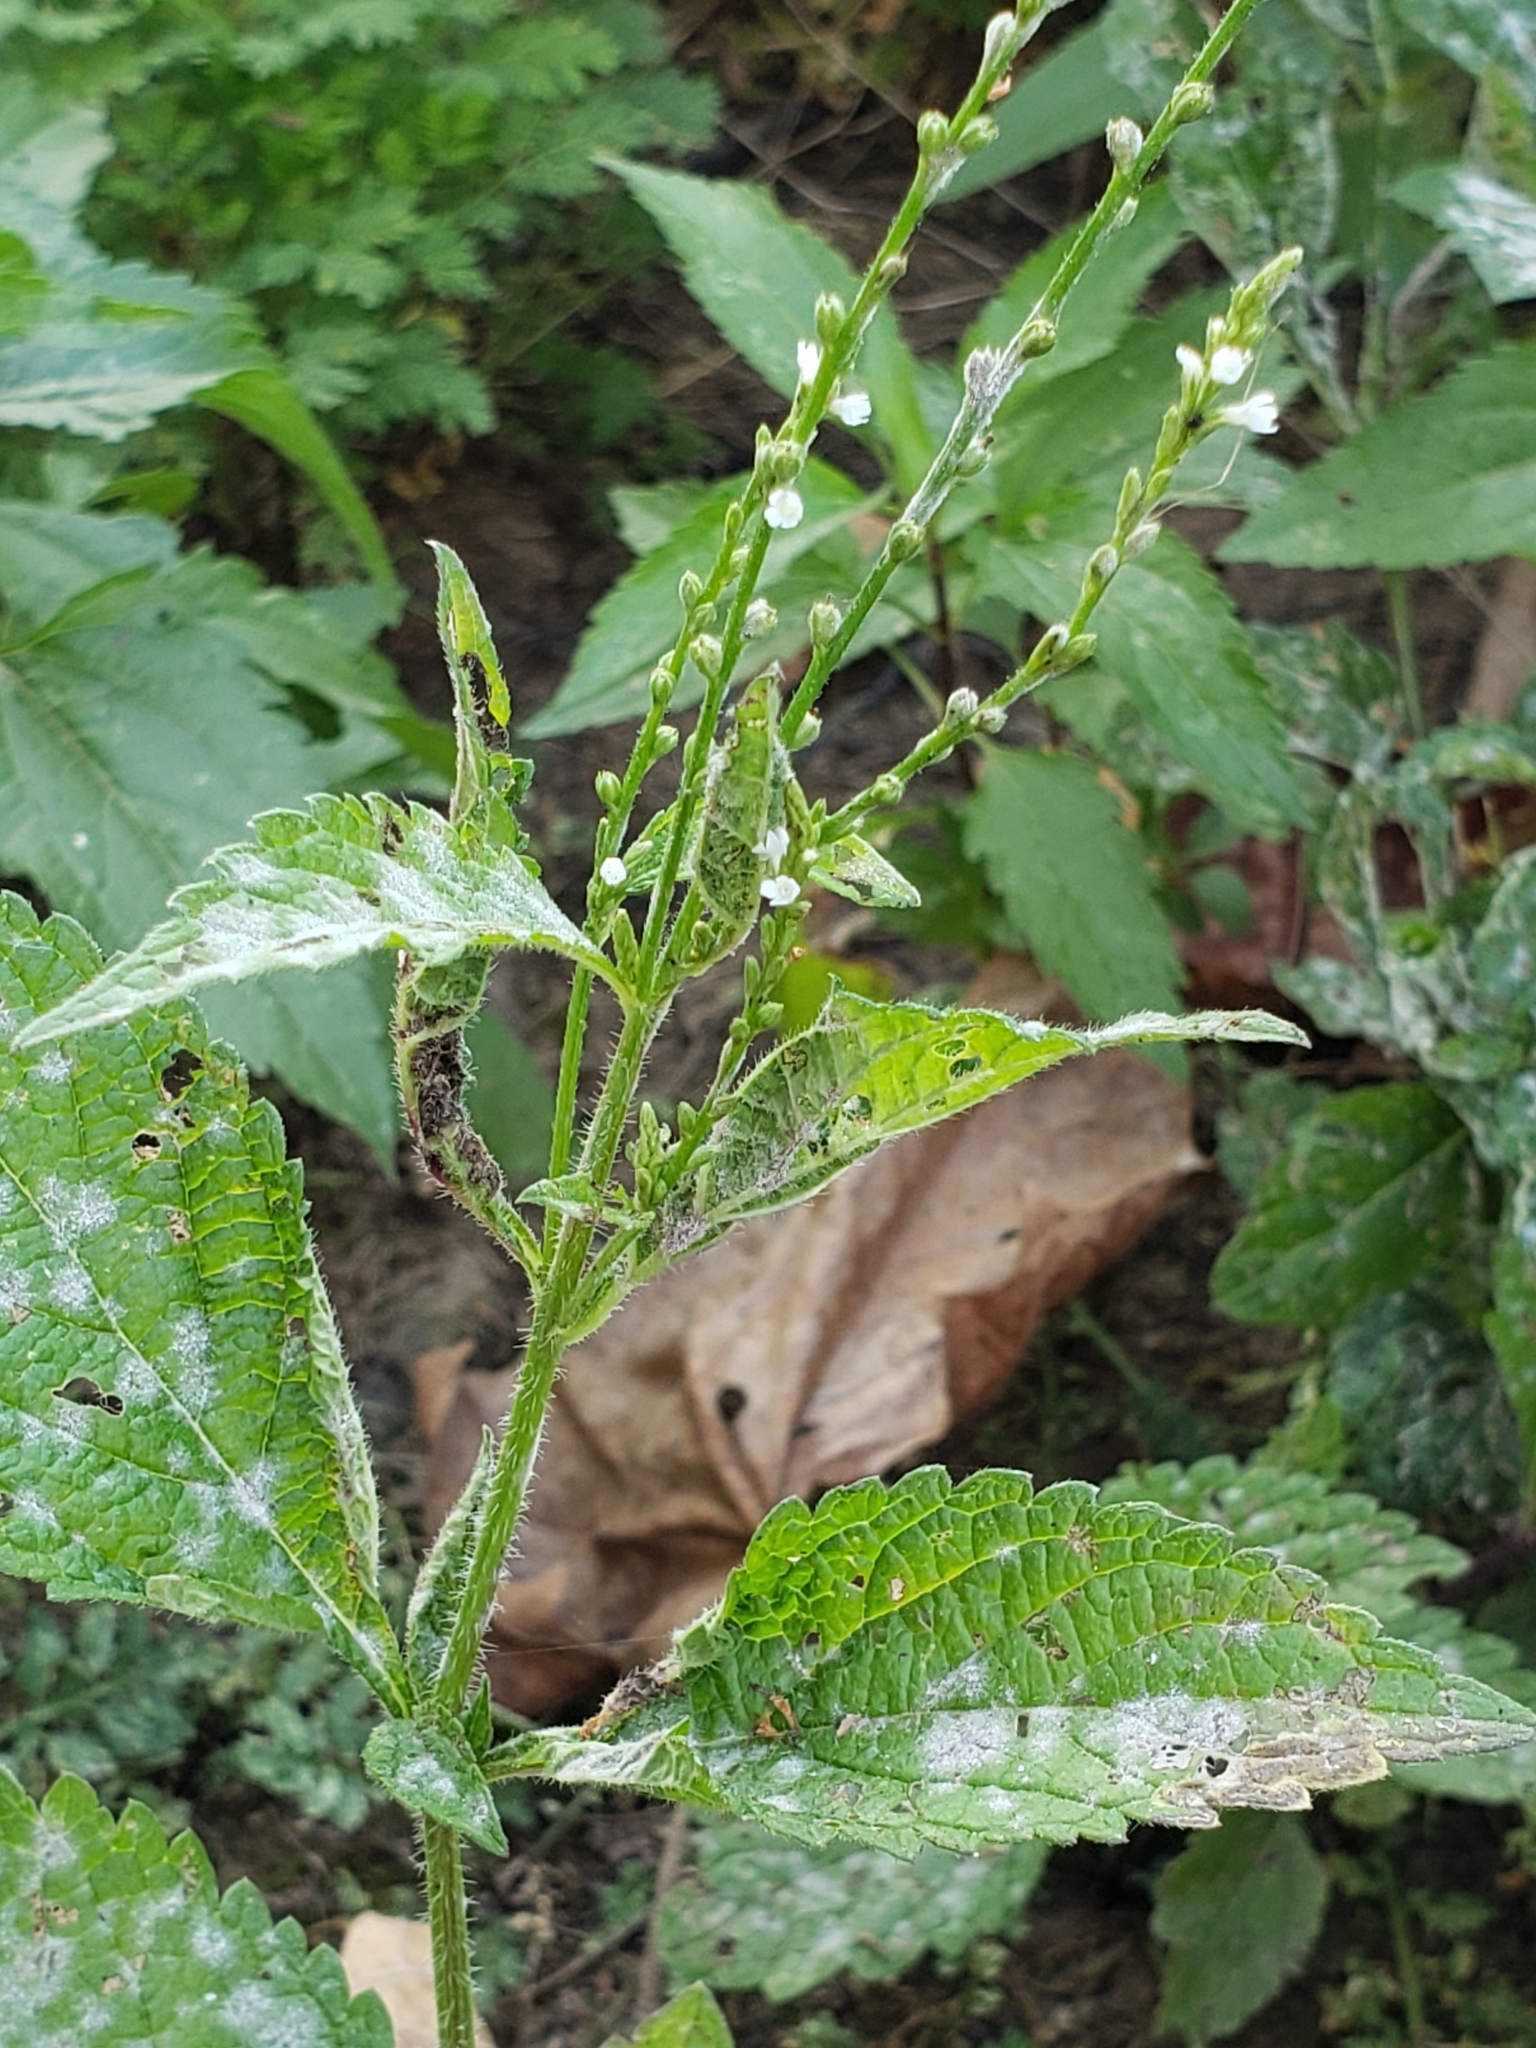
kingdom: Plantae
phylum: Tracheophyta
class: Magnoliopsida
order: Lamiales
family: Verbenaceae
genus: Verbena
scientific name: Verbena urticifolia
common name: Nettle-leaved vervain
